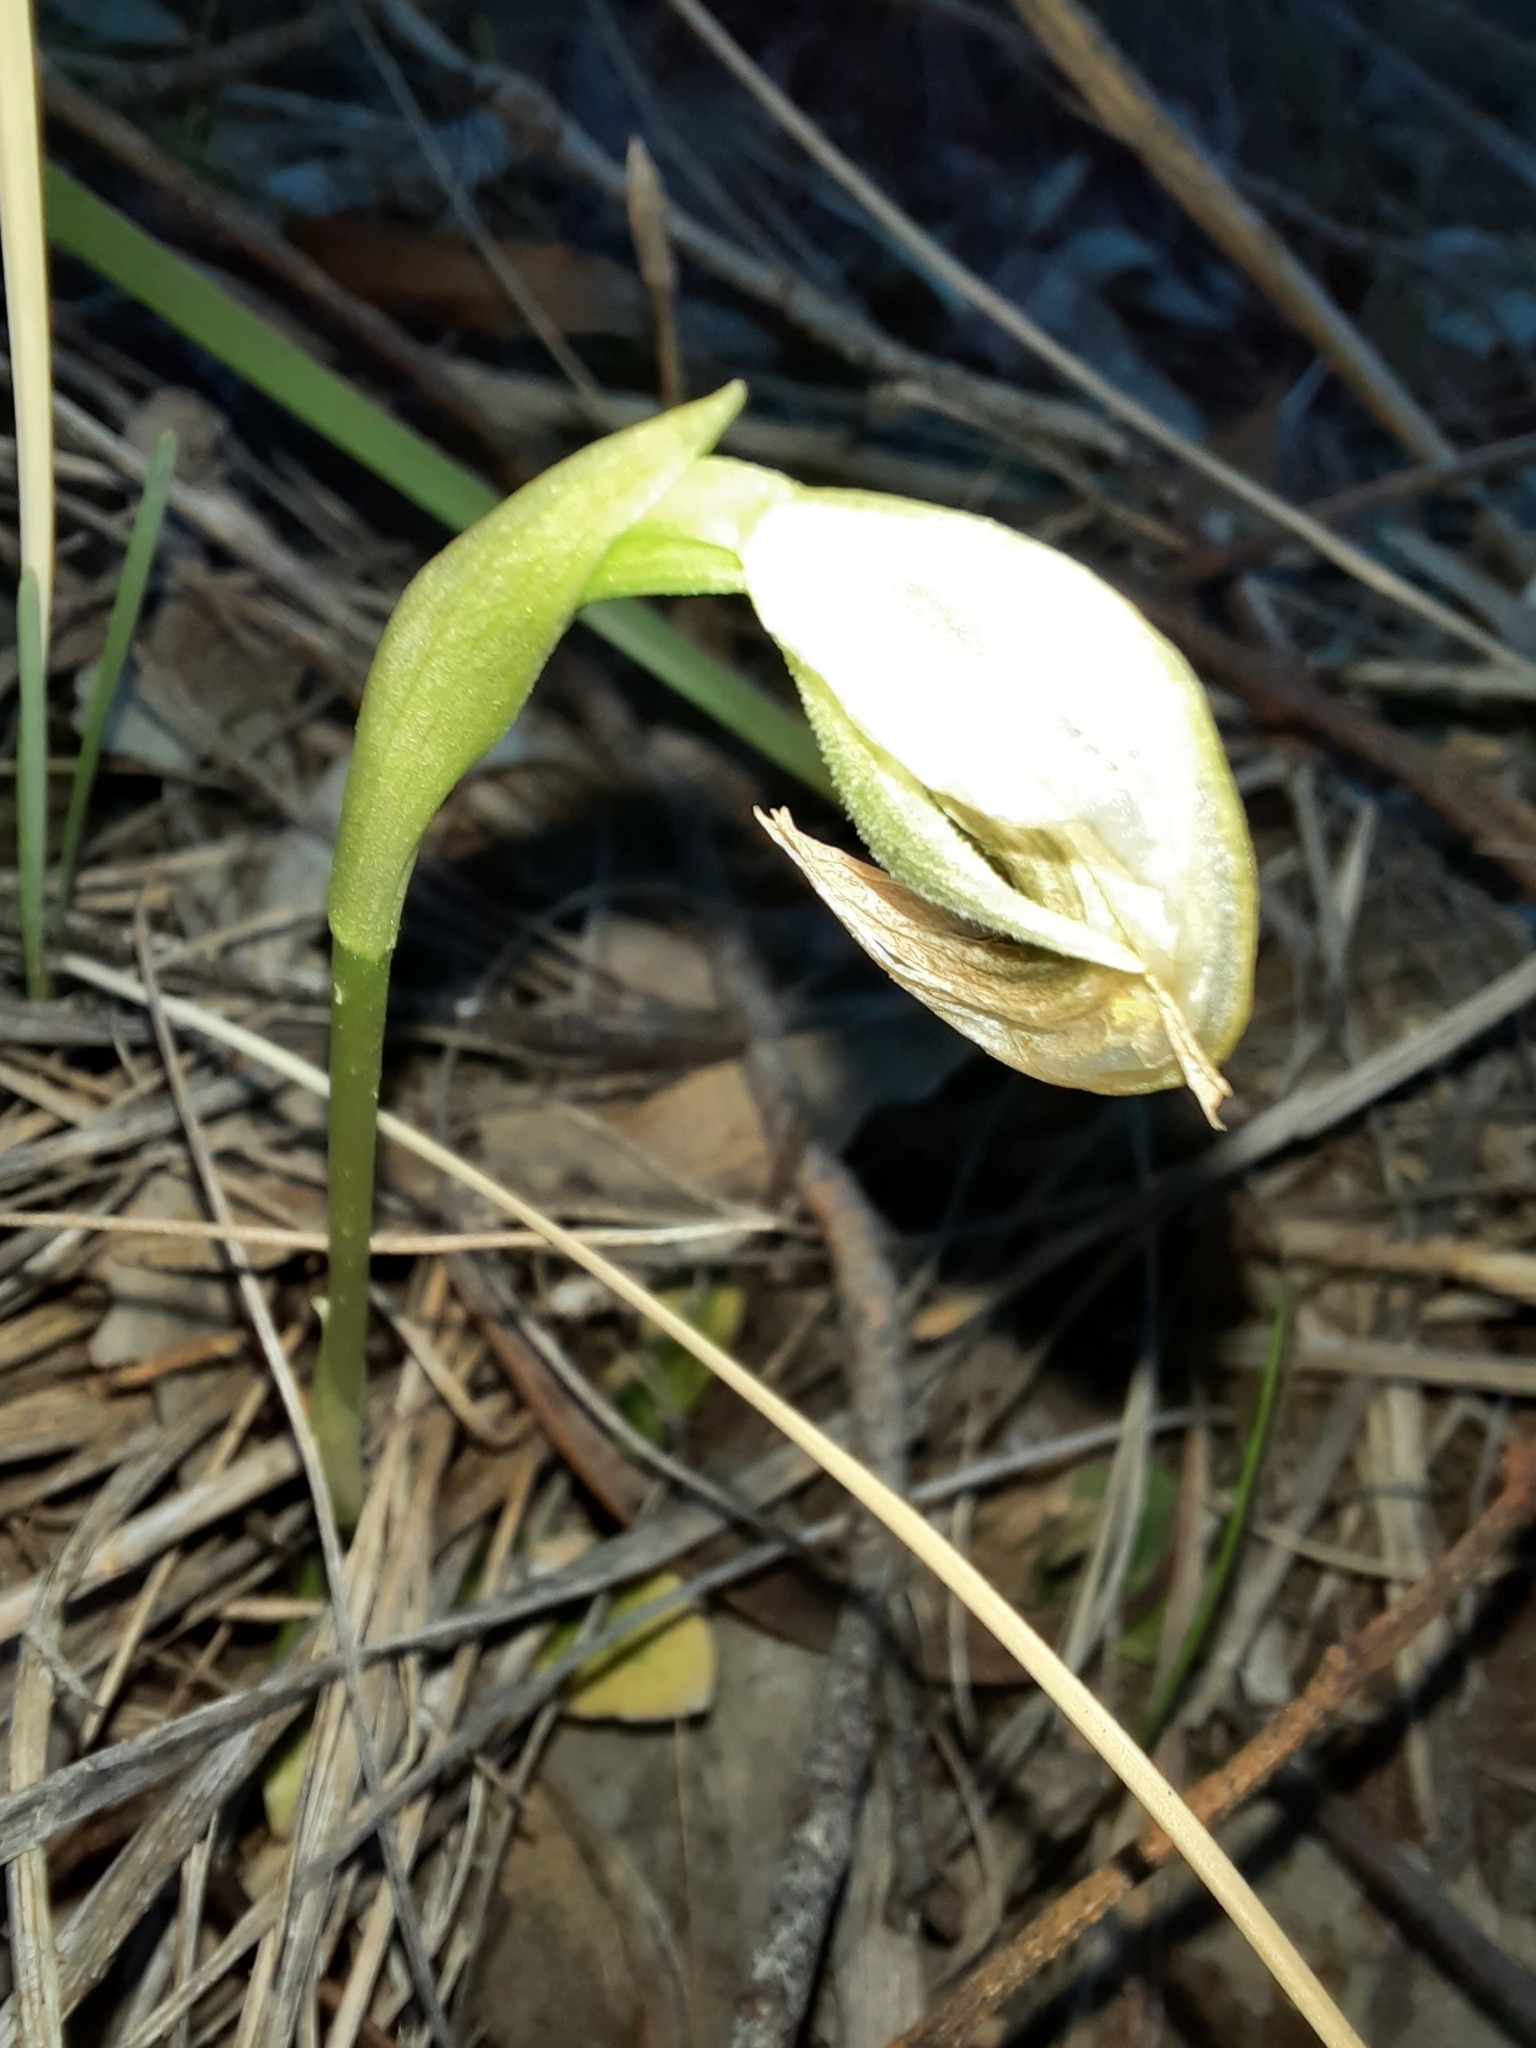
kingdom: Plantae
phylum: Tracheophyta
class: Liliopsida
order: Asparagales
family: Orchidaceae
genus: Pterostylis
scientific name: Pterostylis nutans
